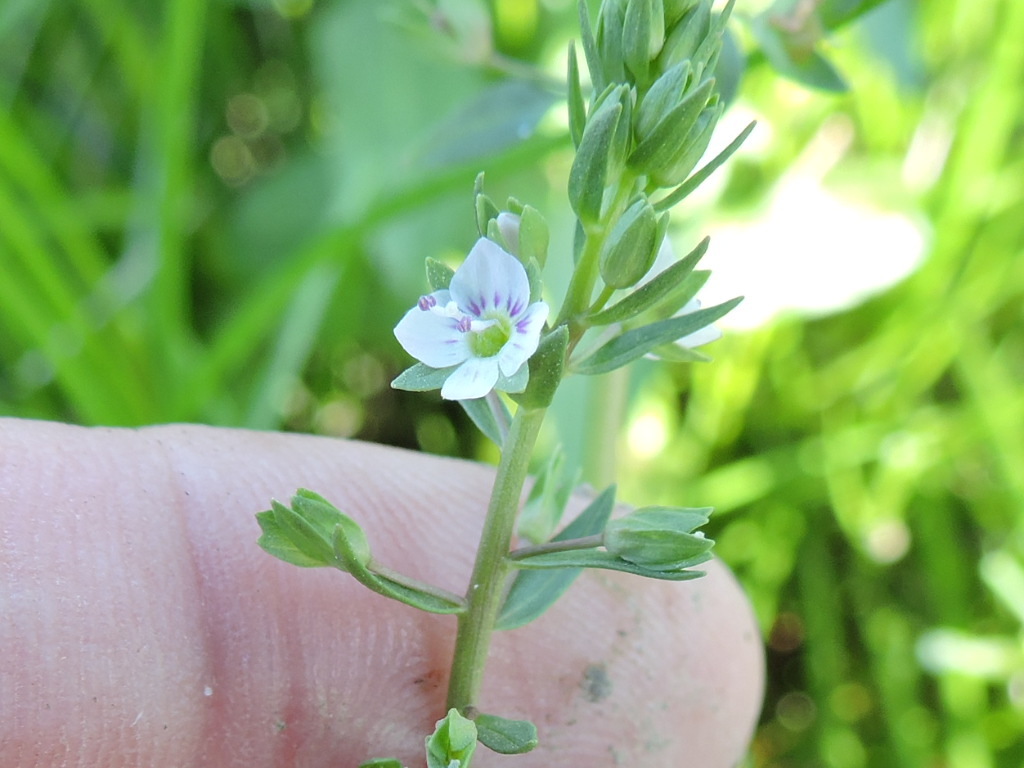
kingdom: Plantae
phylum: Tracheophyta
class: Magnoliopsida
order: Lamiales
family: Plantaginaceae
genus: Veronica
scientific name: Veronica anagallis-aquatica
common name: Water speedwell
